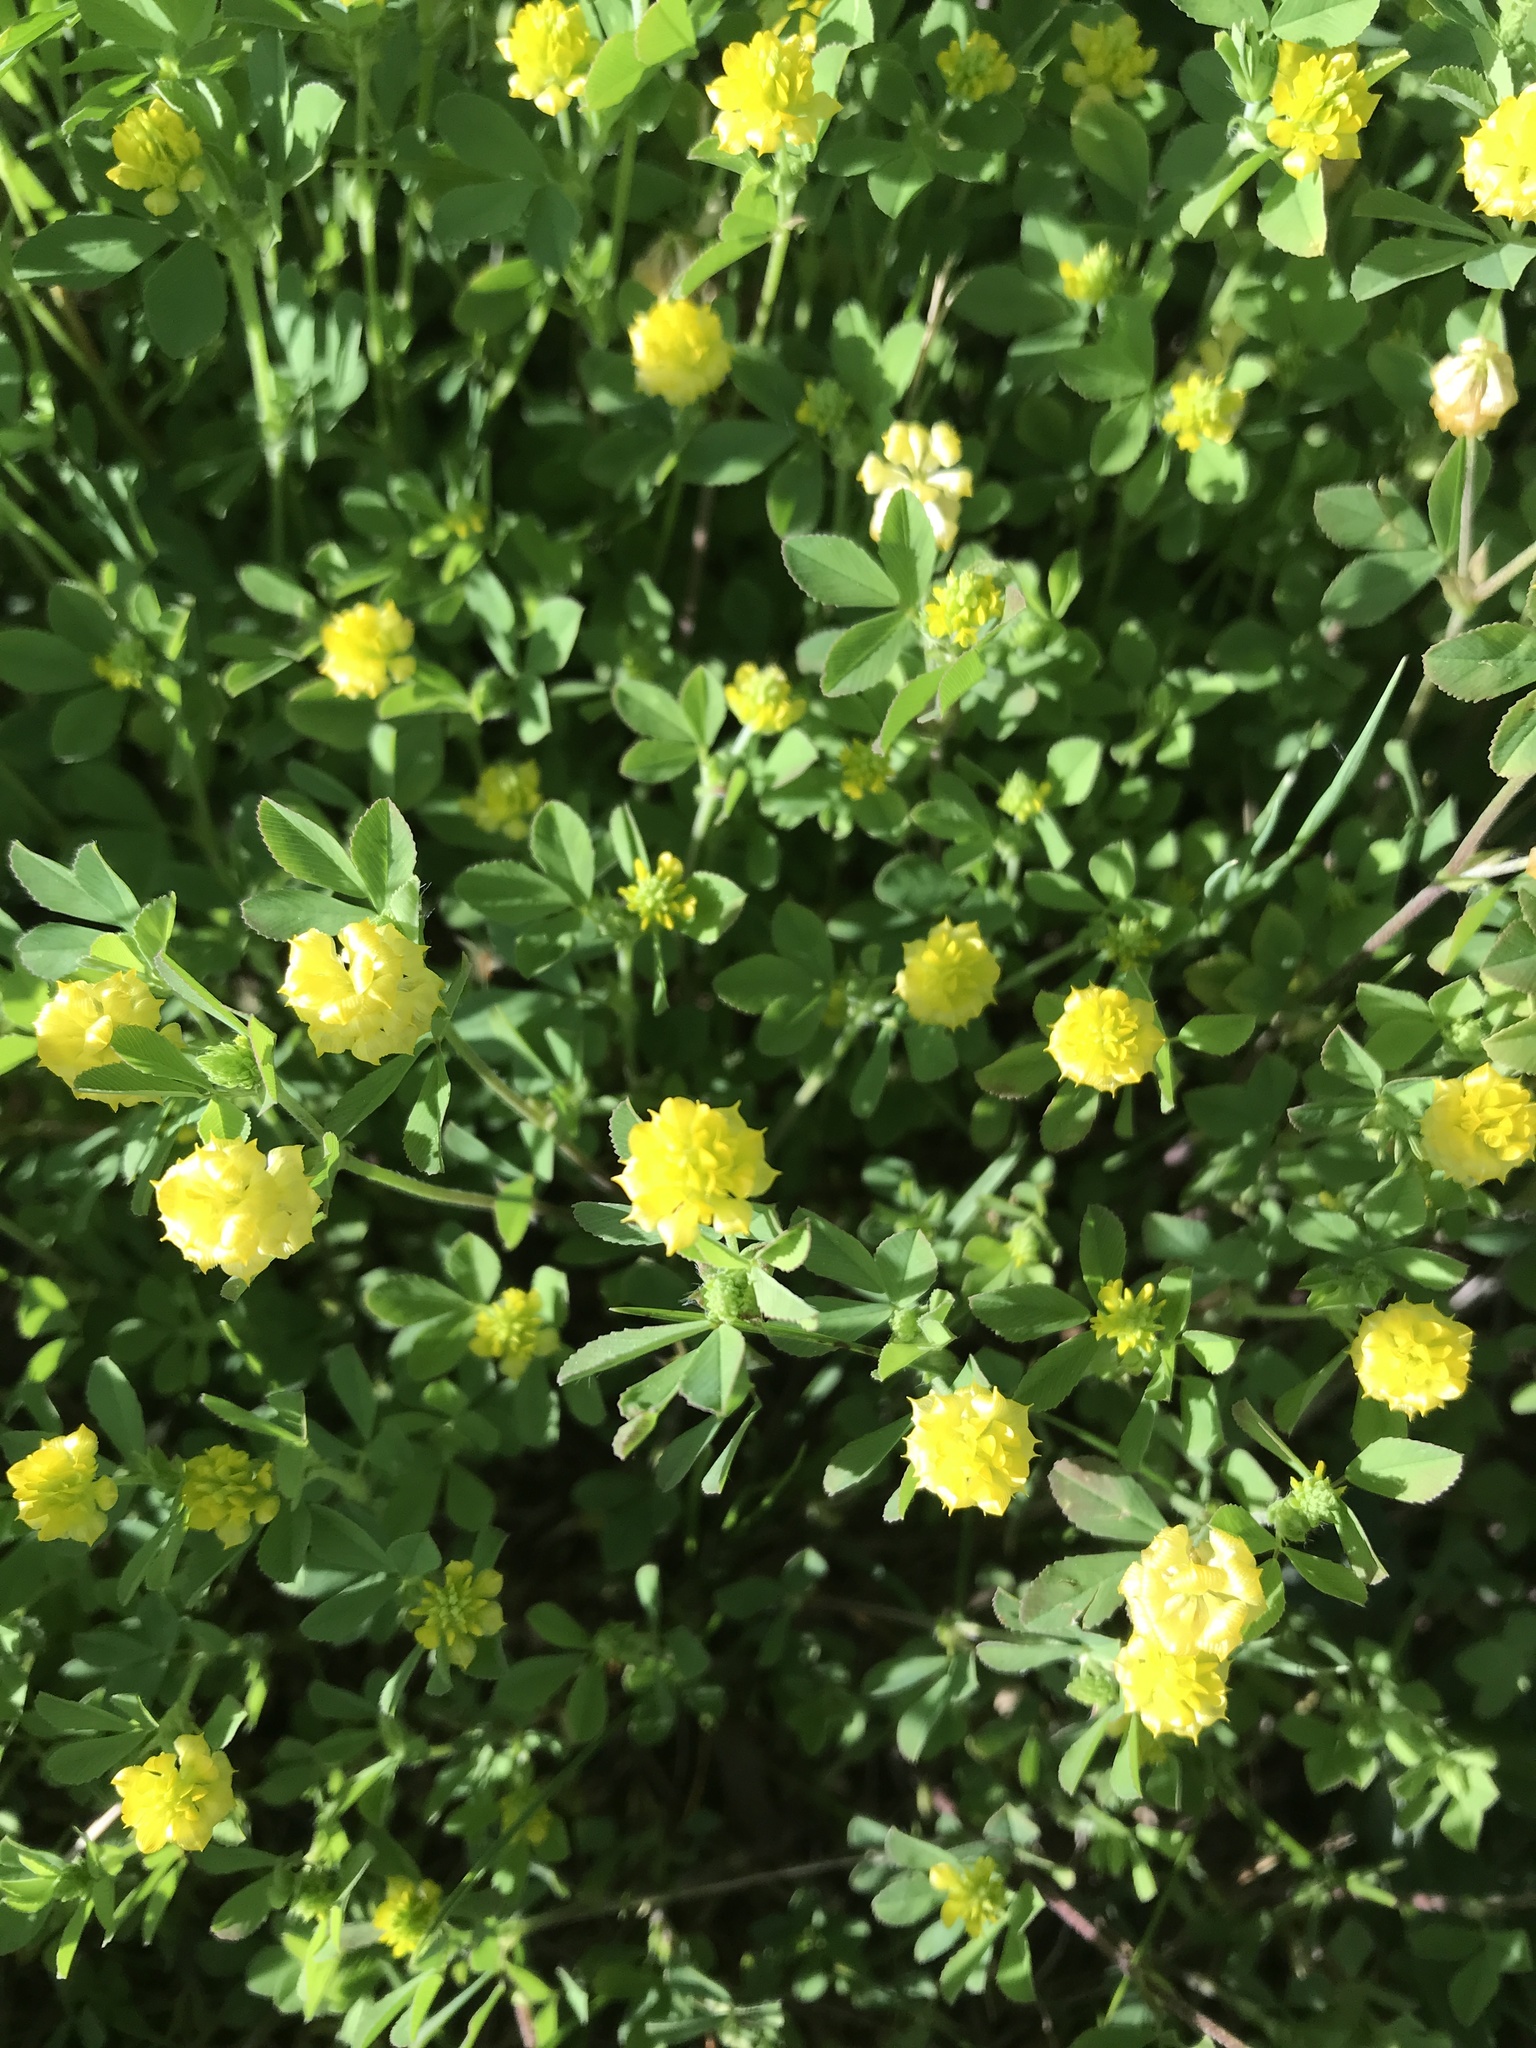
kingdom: Plantae
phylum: Tracheophyta
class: Magnoliopsida
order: Fabales
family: Fabaceae
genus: Trifolium
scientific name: Trifolium campestre
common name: Field clover
